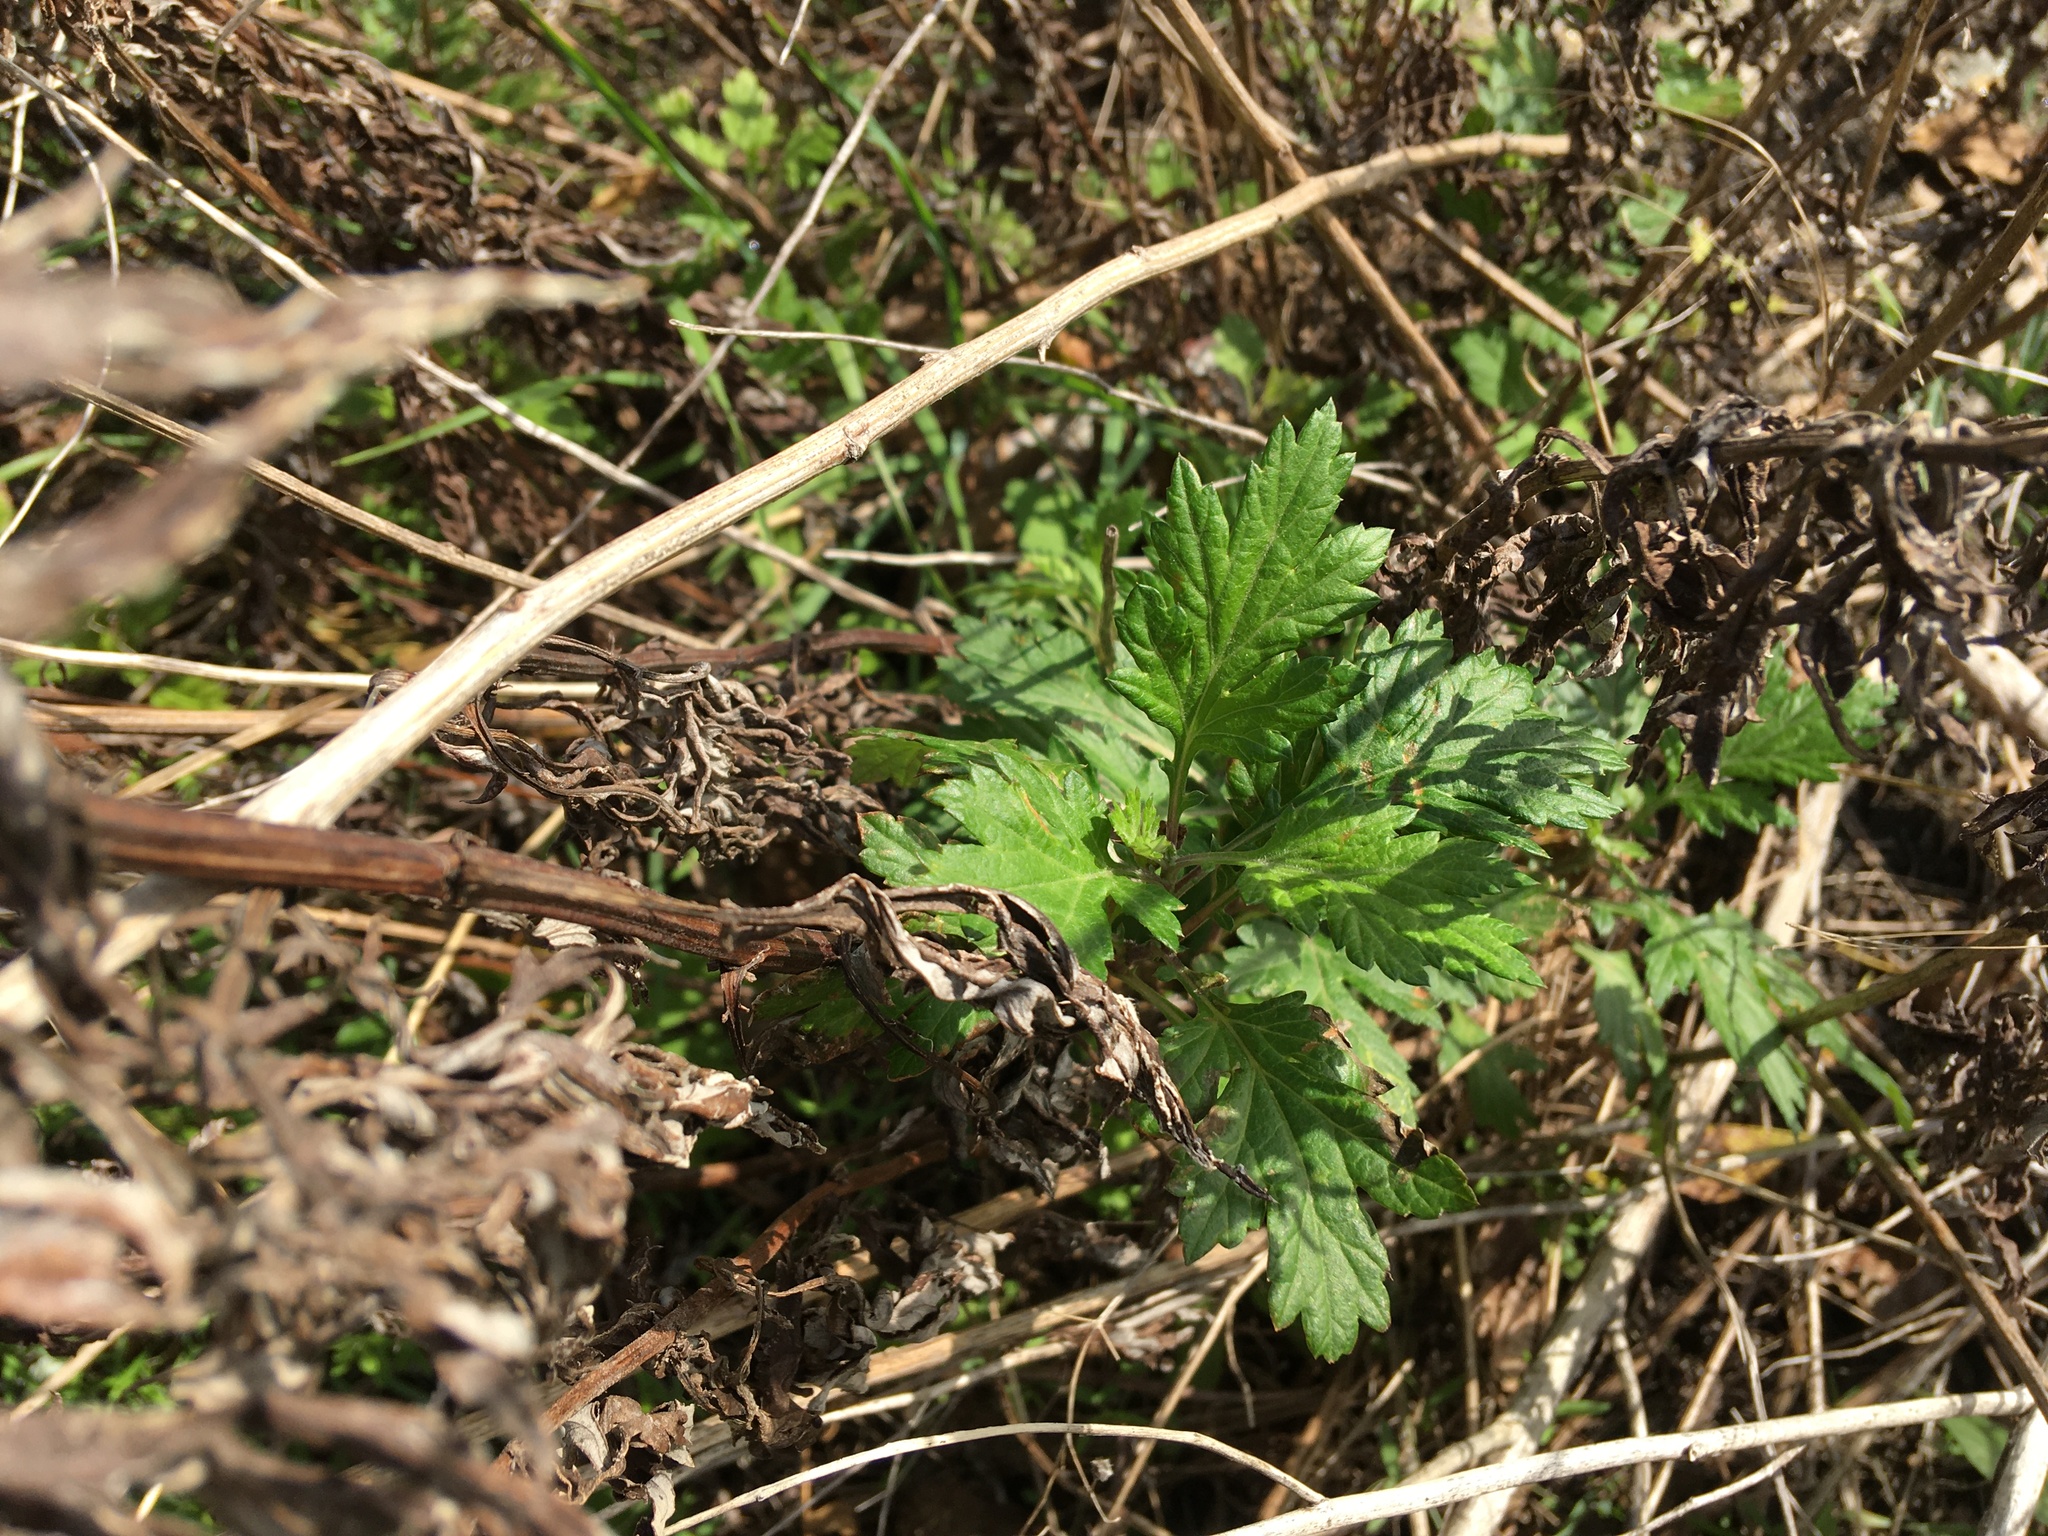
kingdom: Plantae
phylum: Tracheophyta
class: Magnoliopsida
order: Asterales
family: Asteraceae
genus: Artemisia
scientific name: Artemisia vulgaris
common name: Mugwort
